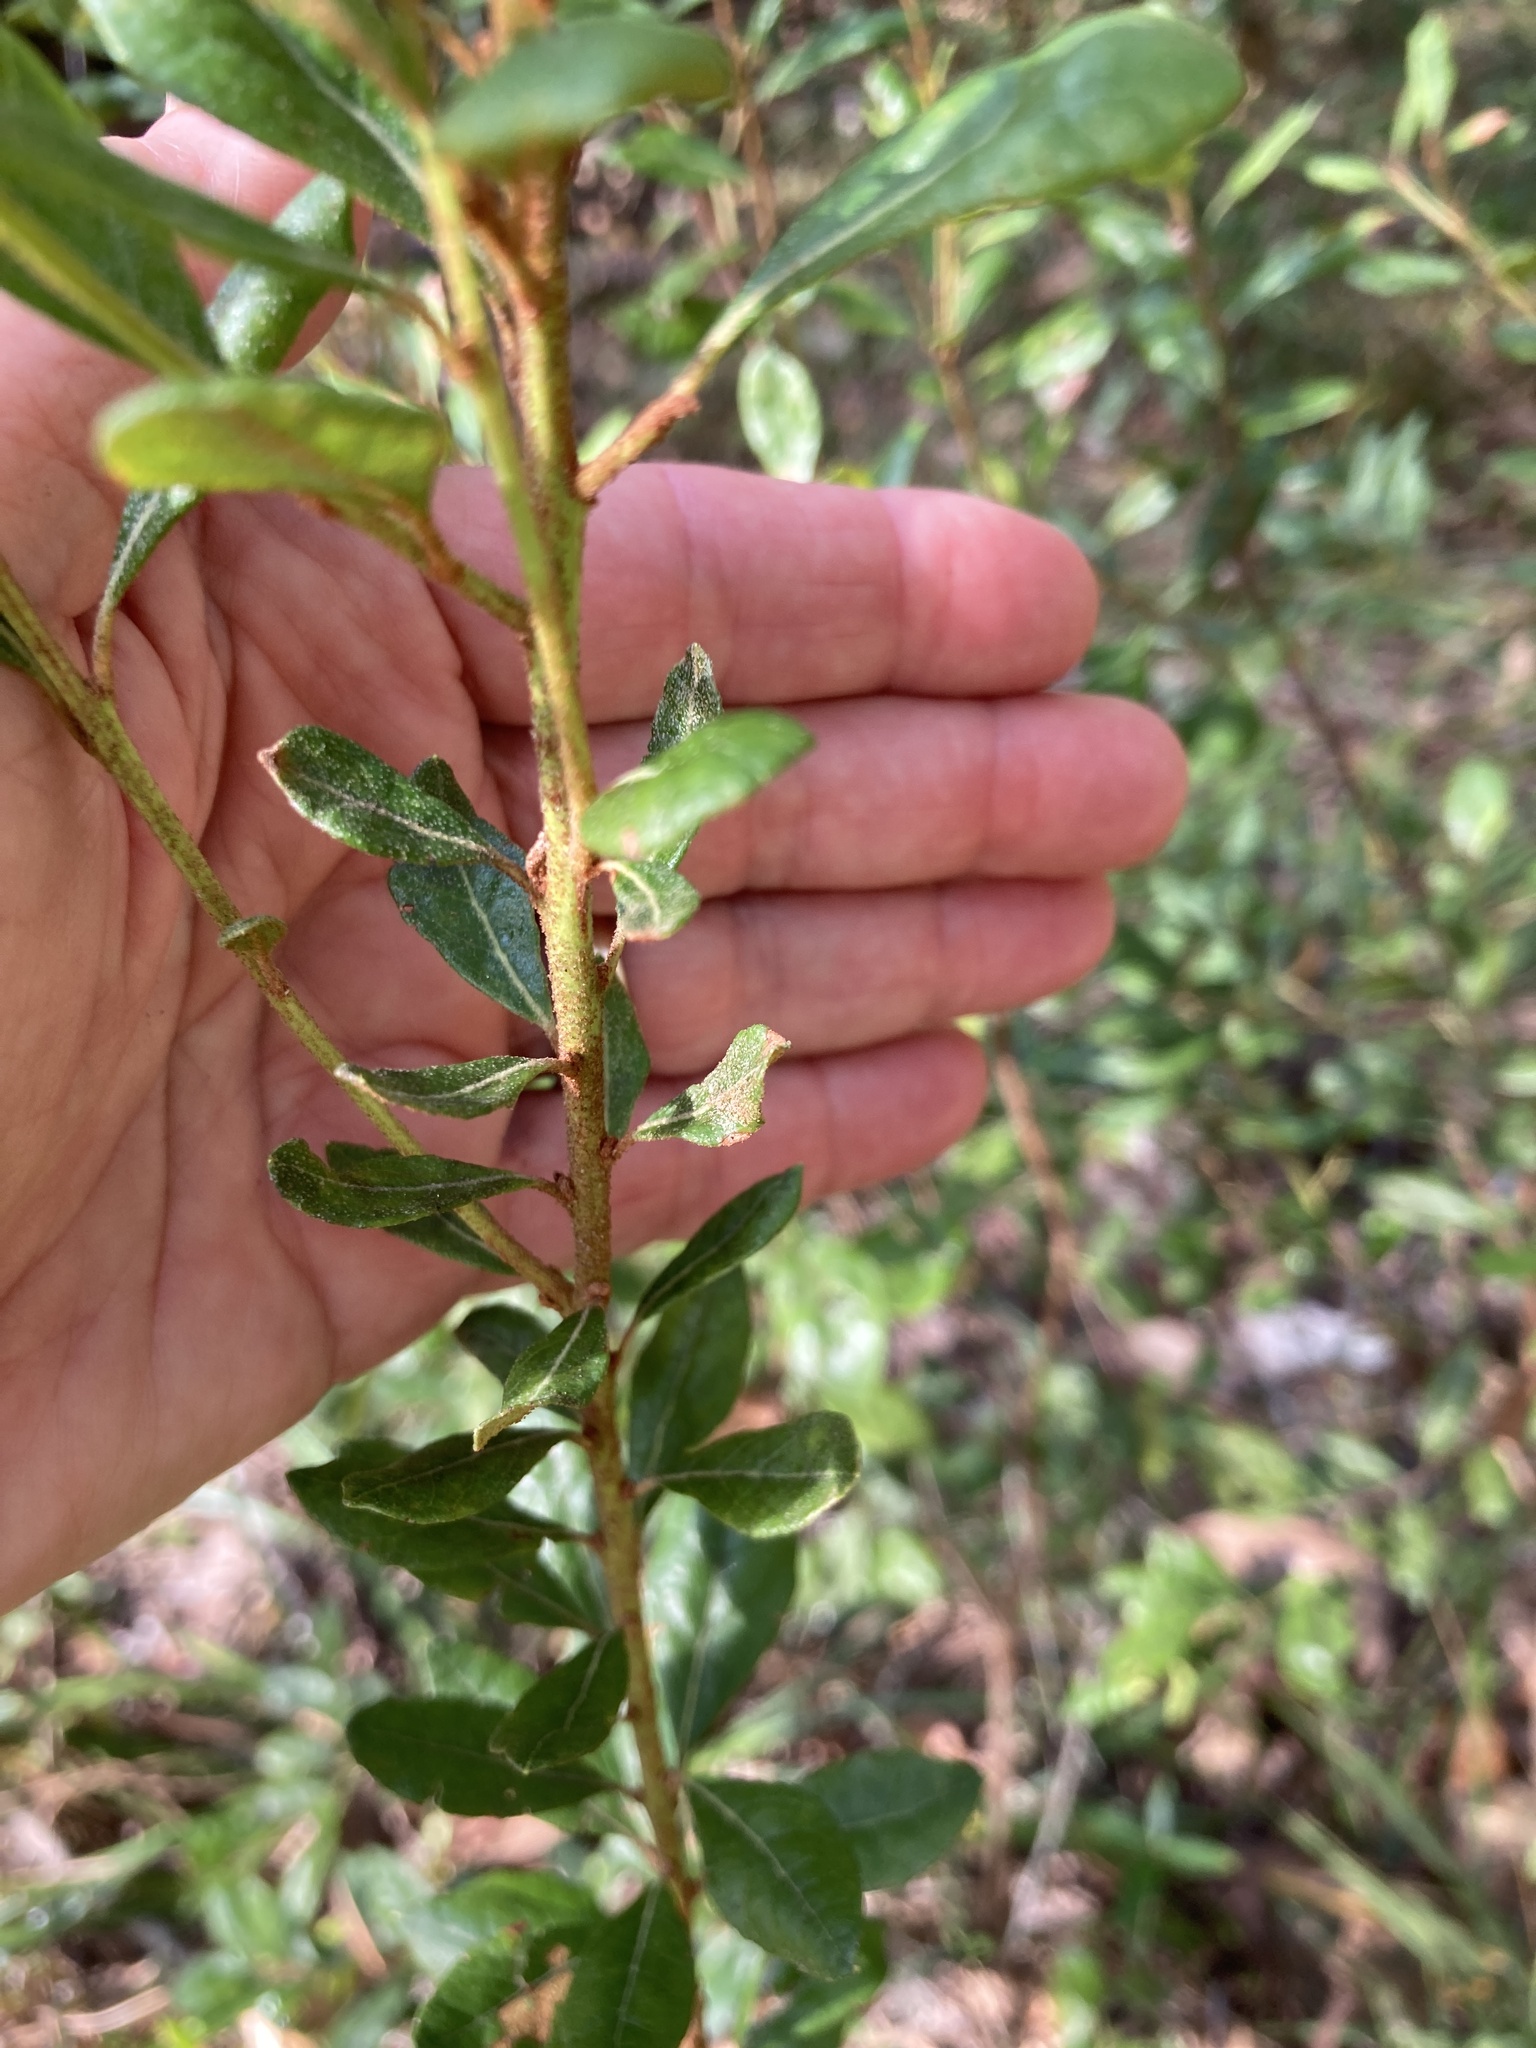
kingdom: Plantae
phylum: Tracheophyta
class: Magnoliopsida
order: Ericales
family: Ericaceae
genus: Lyonia
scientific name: Lyonia ferruginea
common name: Rusty lyonia
